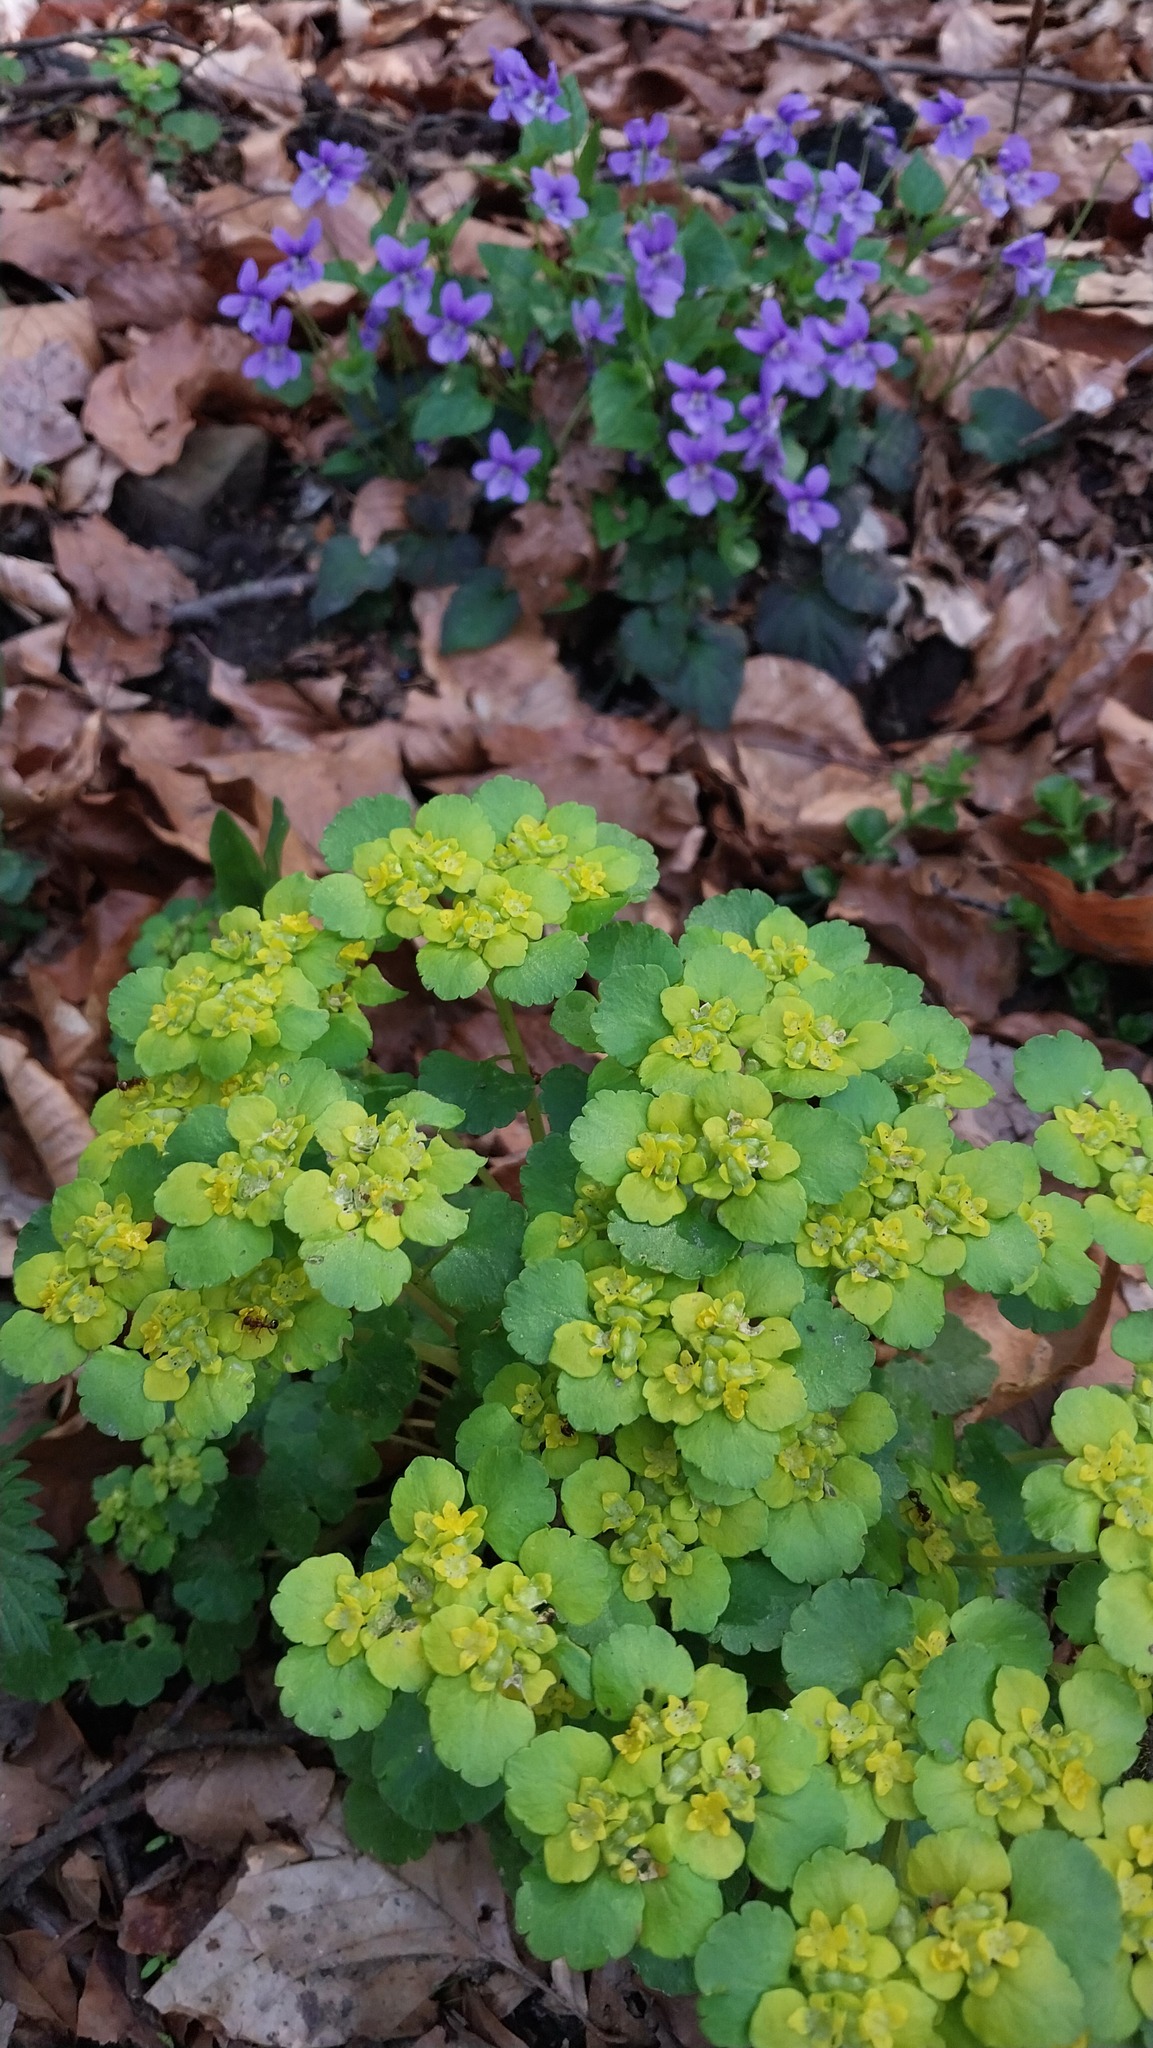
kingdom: Plantae
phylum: Tracheophyta
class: Magnoliopsida
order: Saxifragales
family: Saxifragaceae
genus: Chrysosplenium
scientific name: Chrysosplenium alternifolium
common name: Alternate-leaved golden-saxifrage
